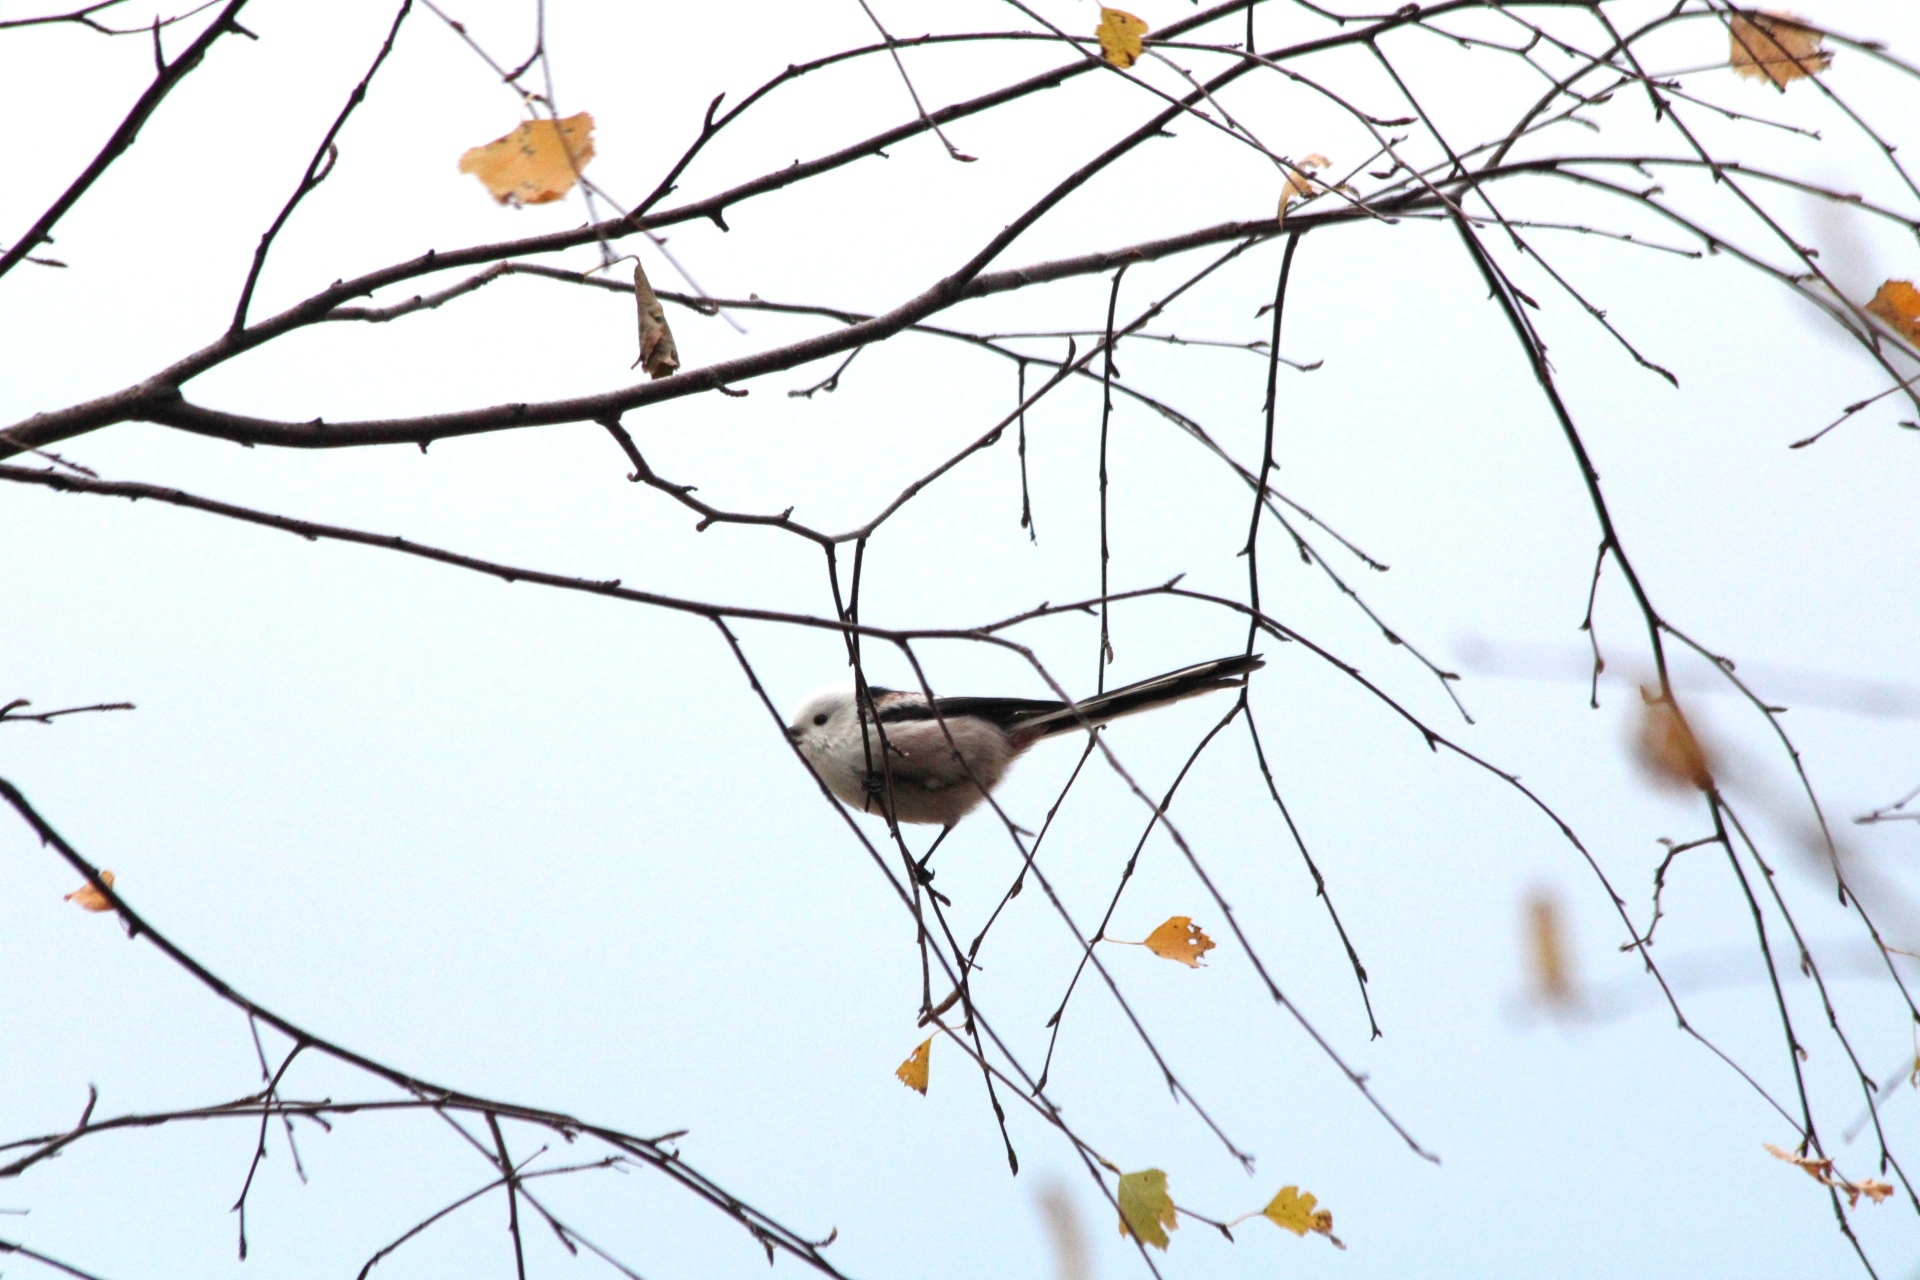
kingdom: Animalia
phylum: Chordata
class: Aves
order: Passeriformes
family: Aegithalidae
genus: Aegithalos
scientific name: Aegithalos caudatus
